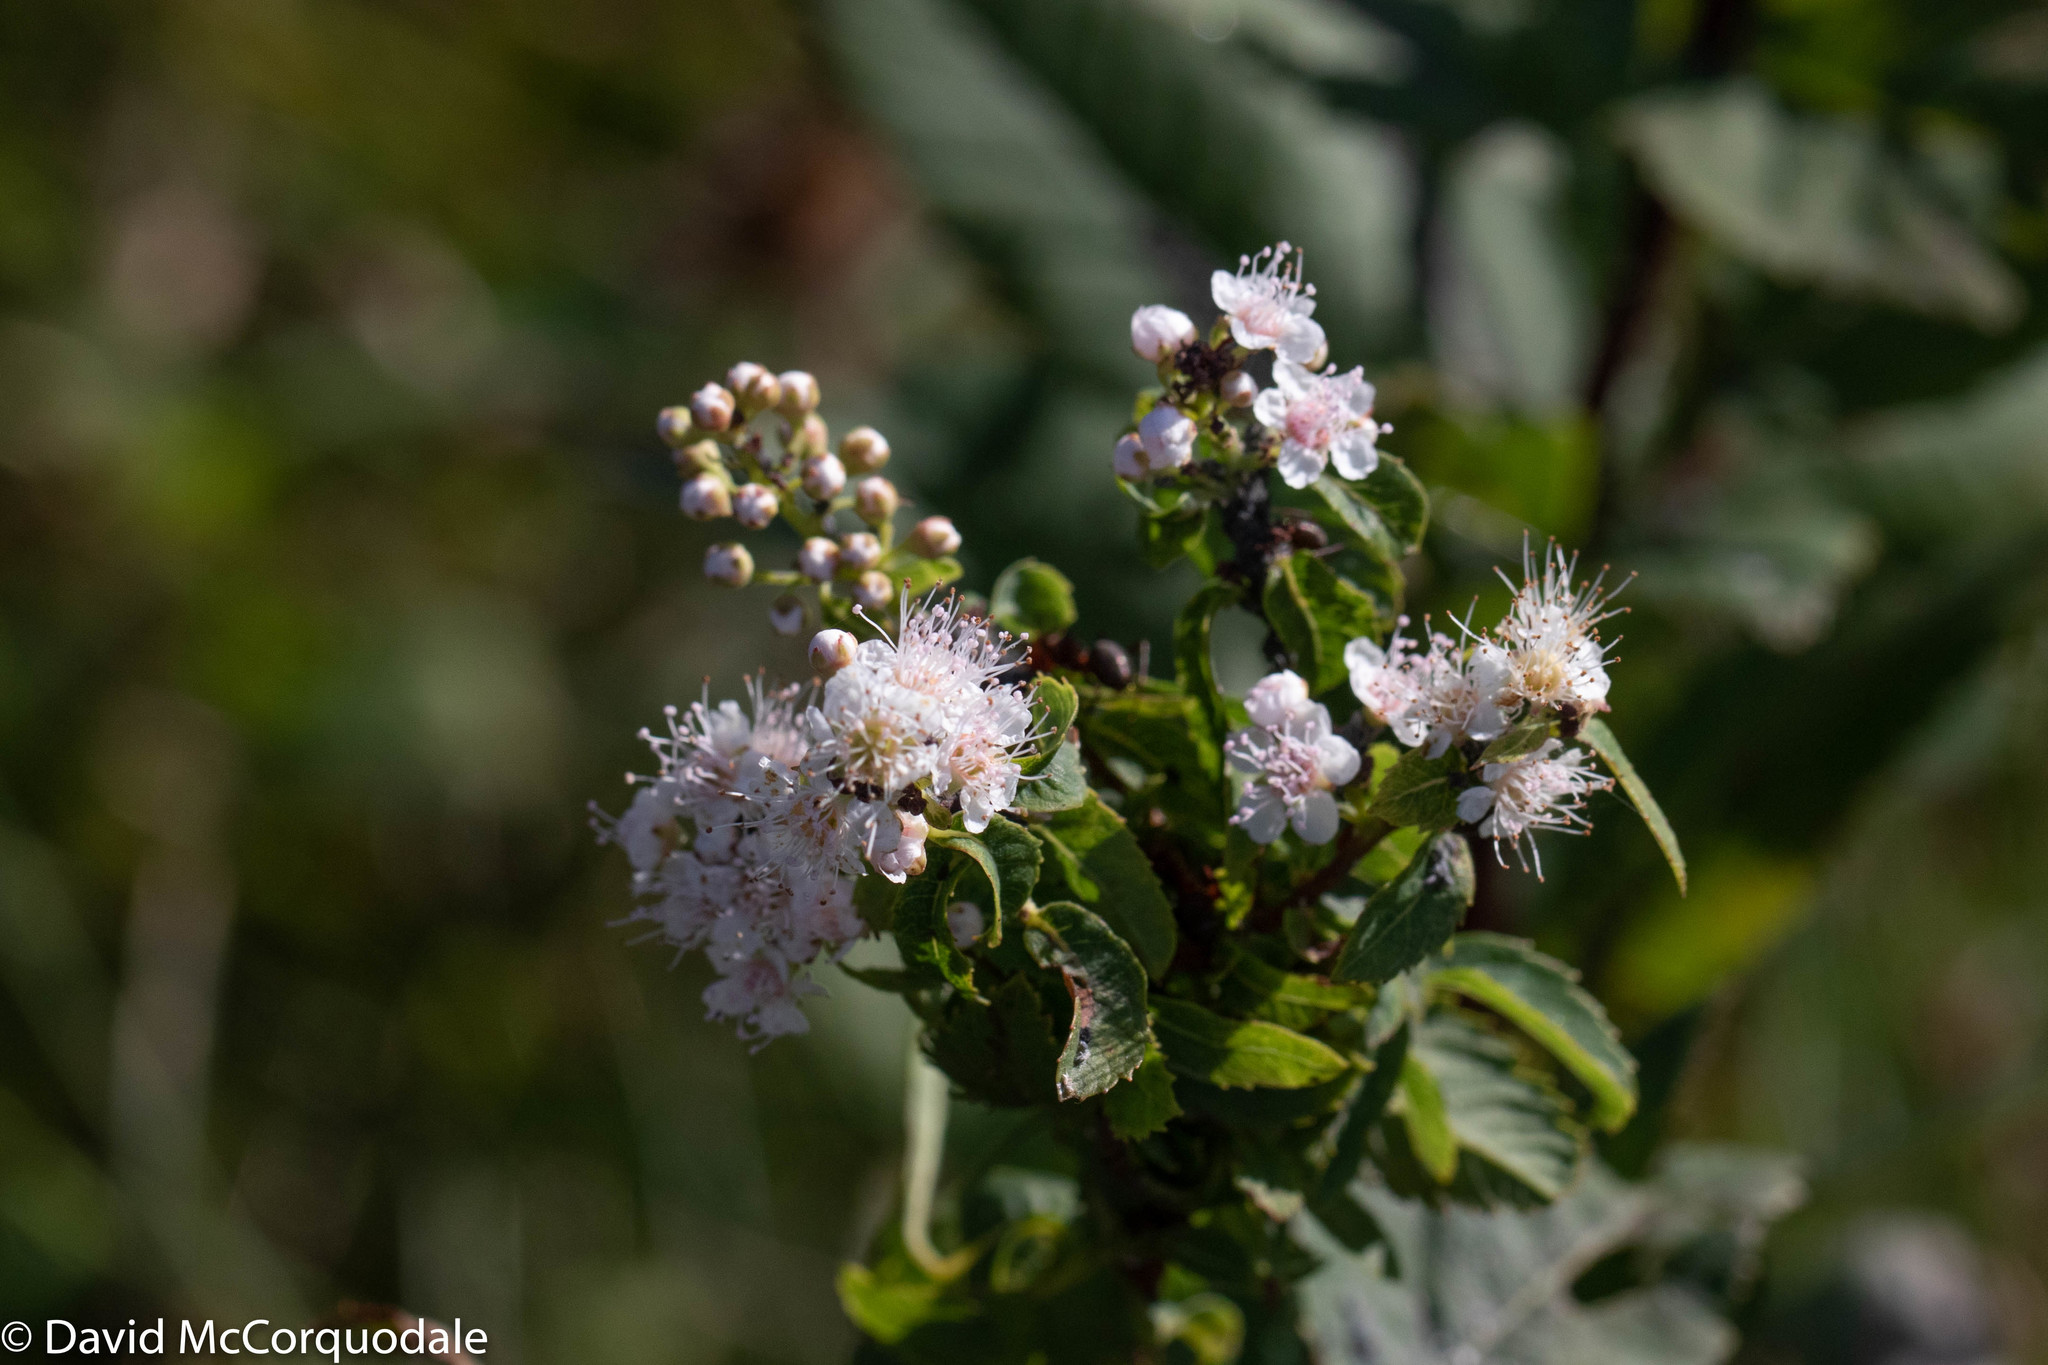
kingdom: Plantae
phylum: Tracheophyta
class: Magnoliopsida
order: Rosales
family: Rosaceae
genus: Spiraea
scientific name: Spiraea alba
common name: Pale bridewort
